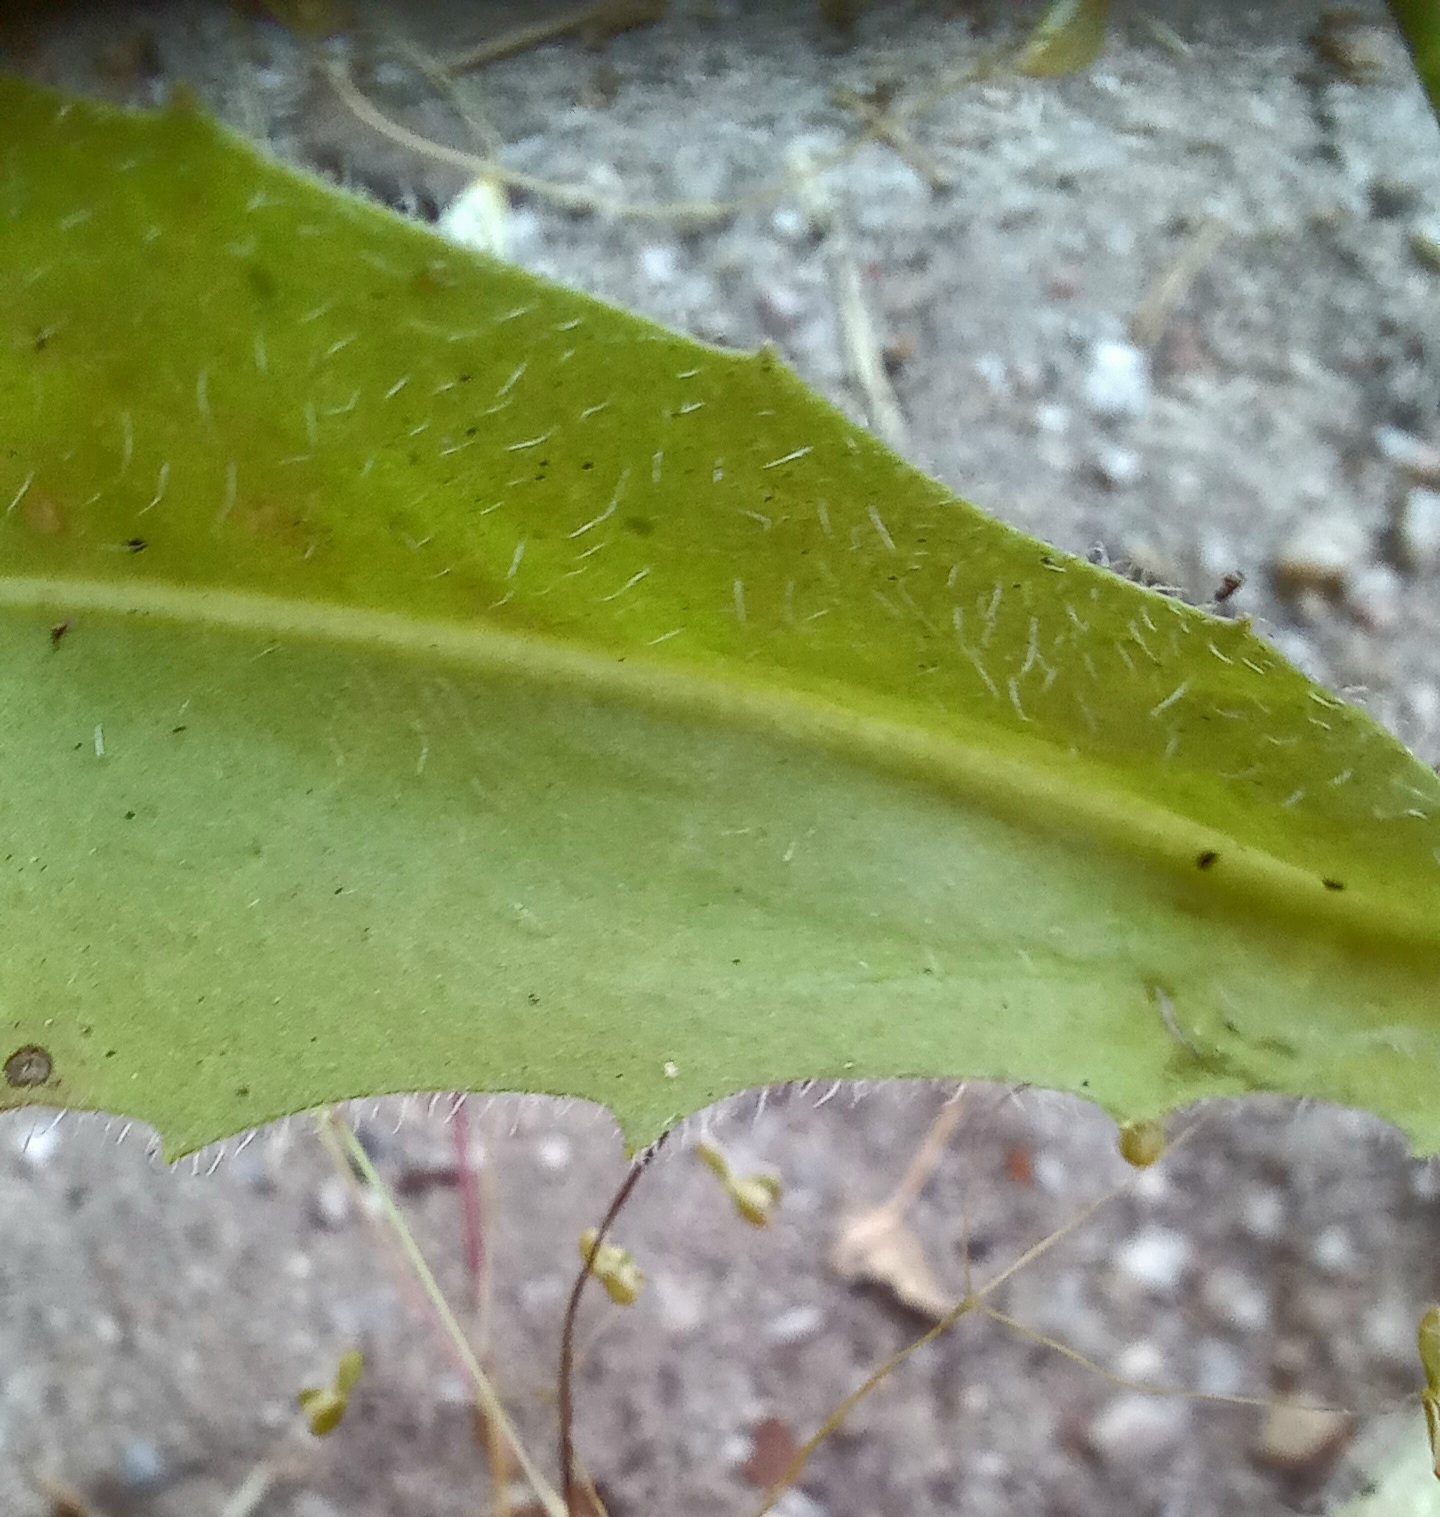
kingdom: Plantae
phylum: Tracheophyta
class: Magnoliopsida
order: Asterales
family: Asteraceae
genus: Hedypnois
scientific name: Hedypnois rhagadioloides
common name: Cretan weed
